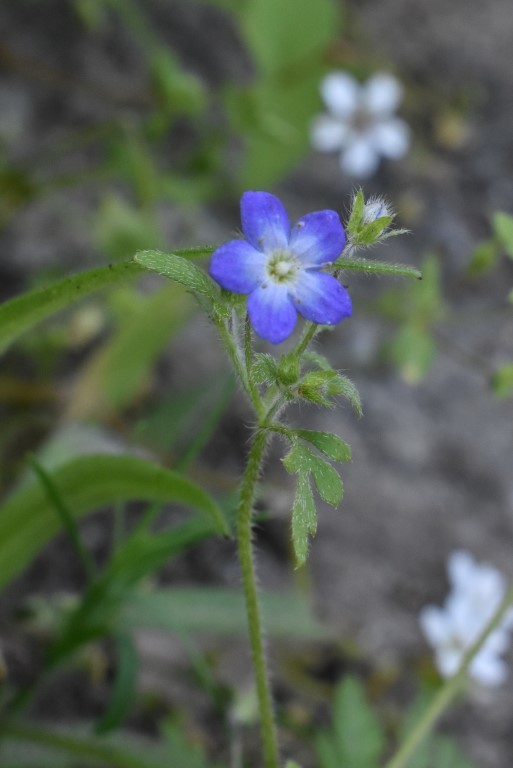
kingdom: Plantae
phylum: Tracheophyta
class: Magnoliopsida
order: Boraginales
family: Hydrophyllaceae
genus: Nemophila
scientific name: Nemophila pulchella
